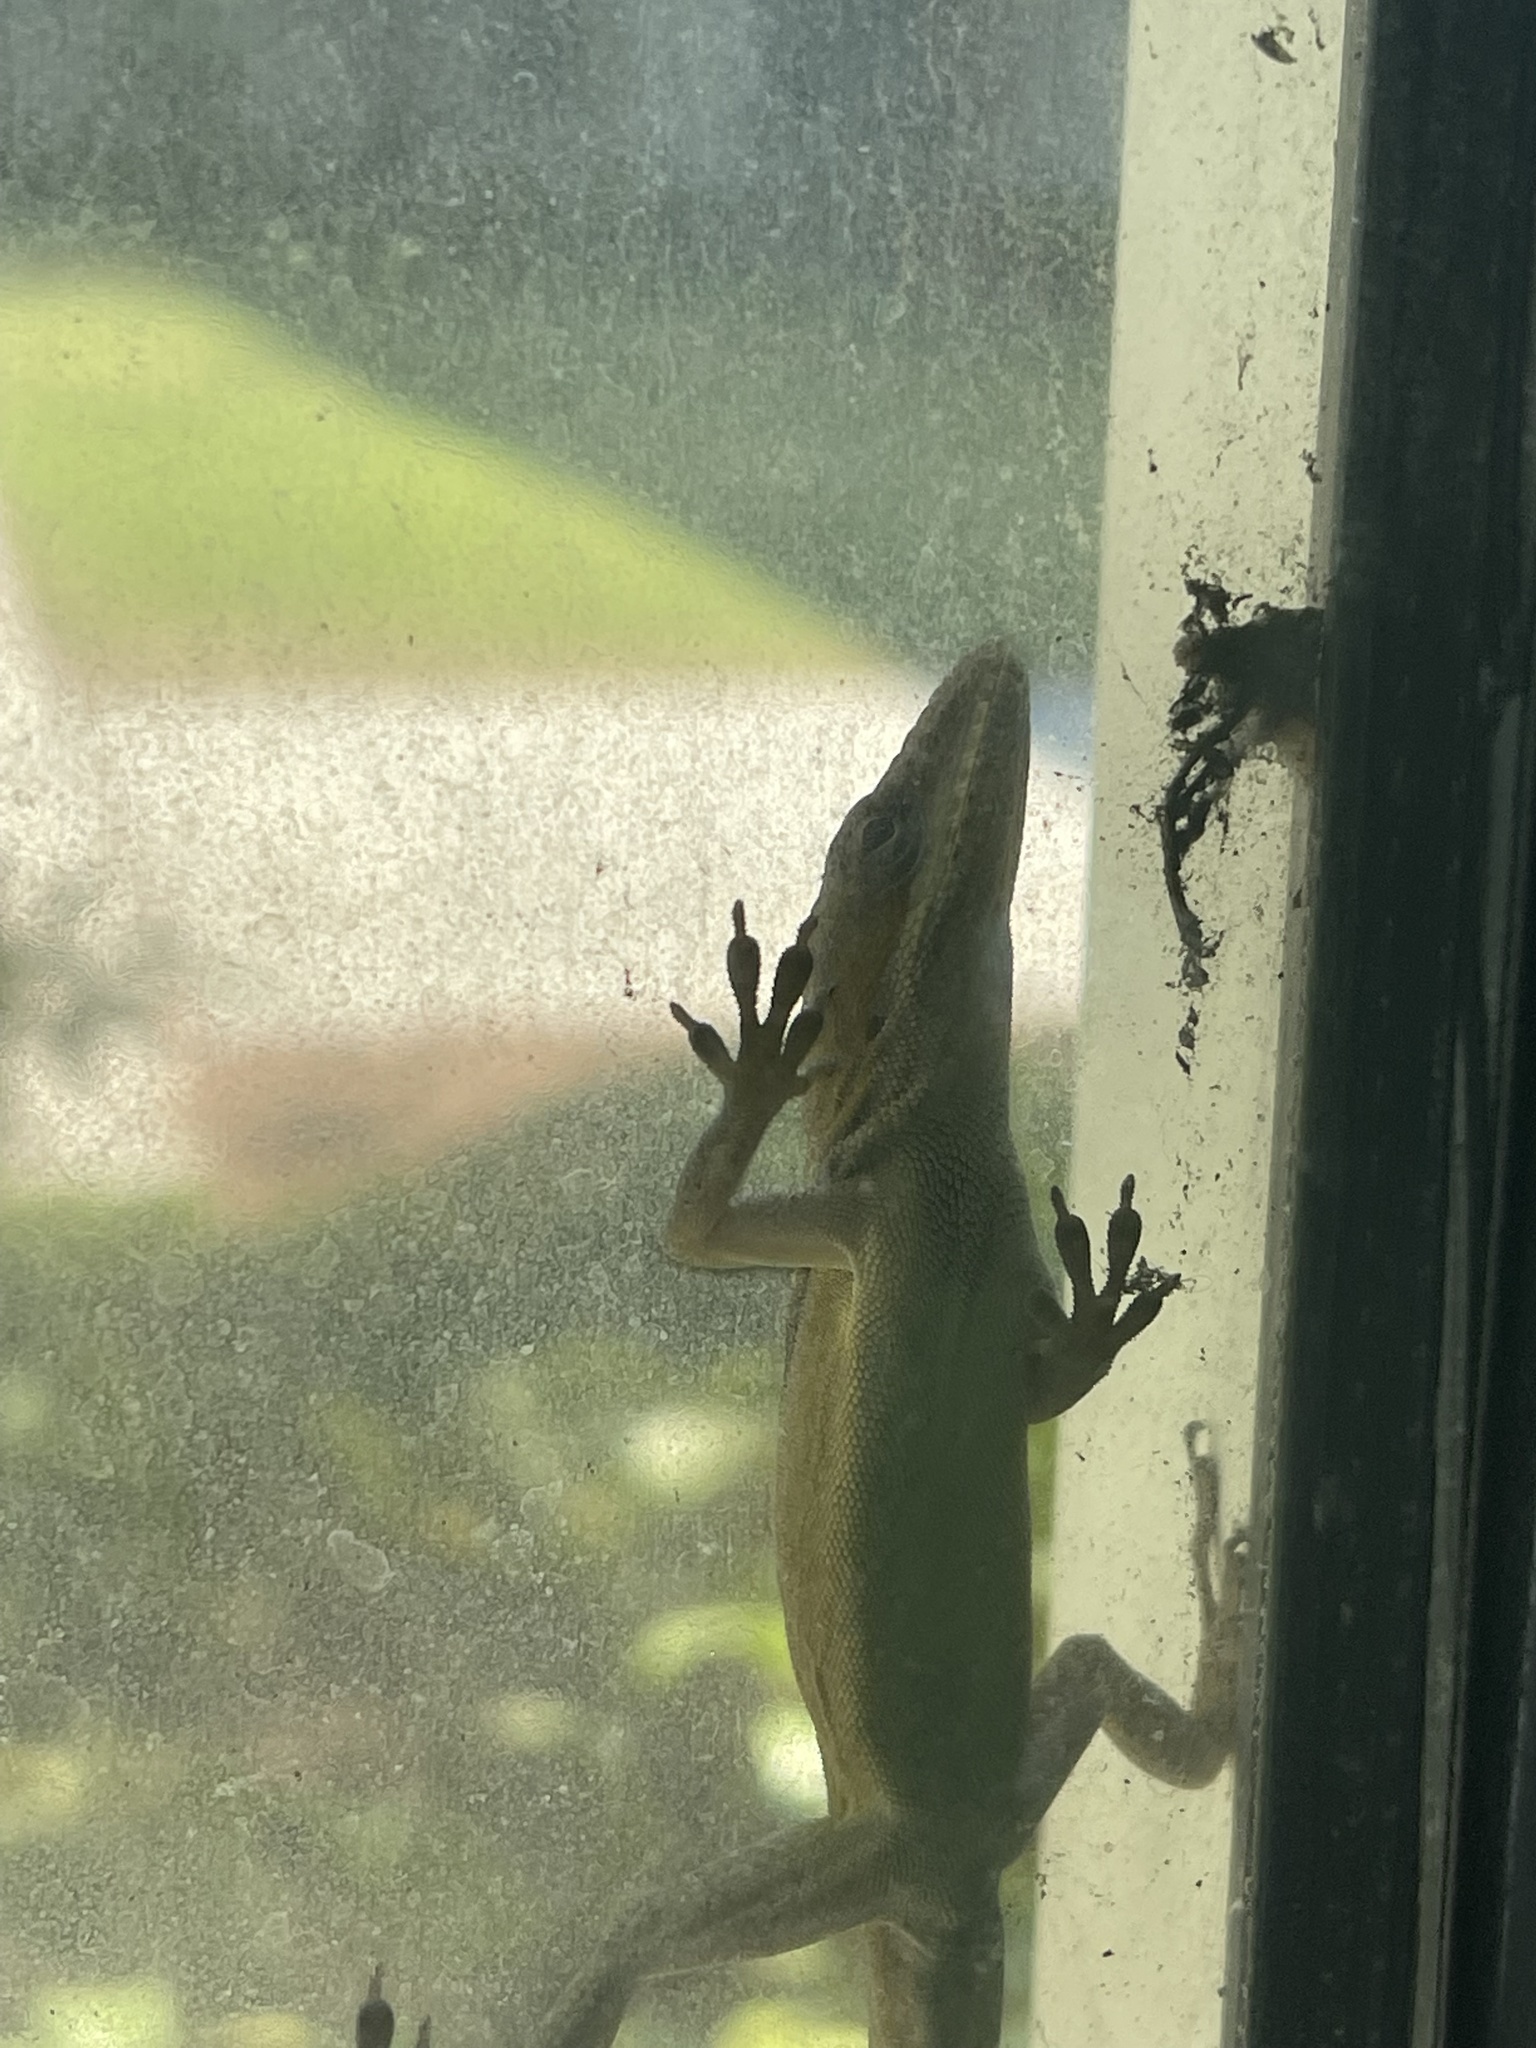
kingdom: Animalia
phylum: Chordata
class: Squamata
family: Dactyloidae
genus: Anolis
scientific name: Anolis carolinensis
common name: Green anole
